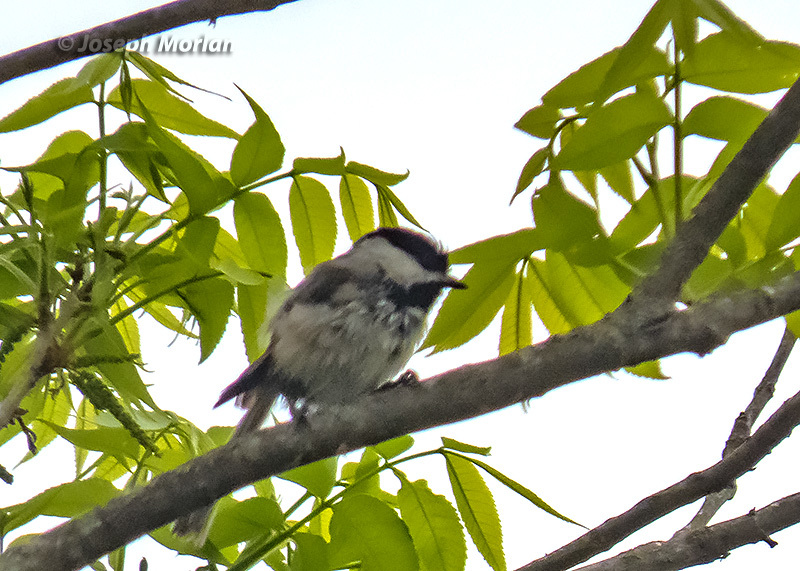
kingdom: Animalia
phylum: Chordata
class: Aves
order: Passeriformes
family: Paridae
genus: Poecile
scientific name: Poecile carolinensis
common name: Carolina chickadee
